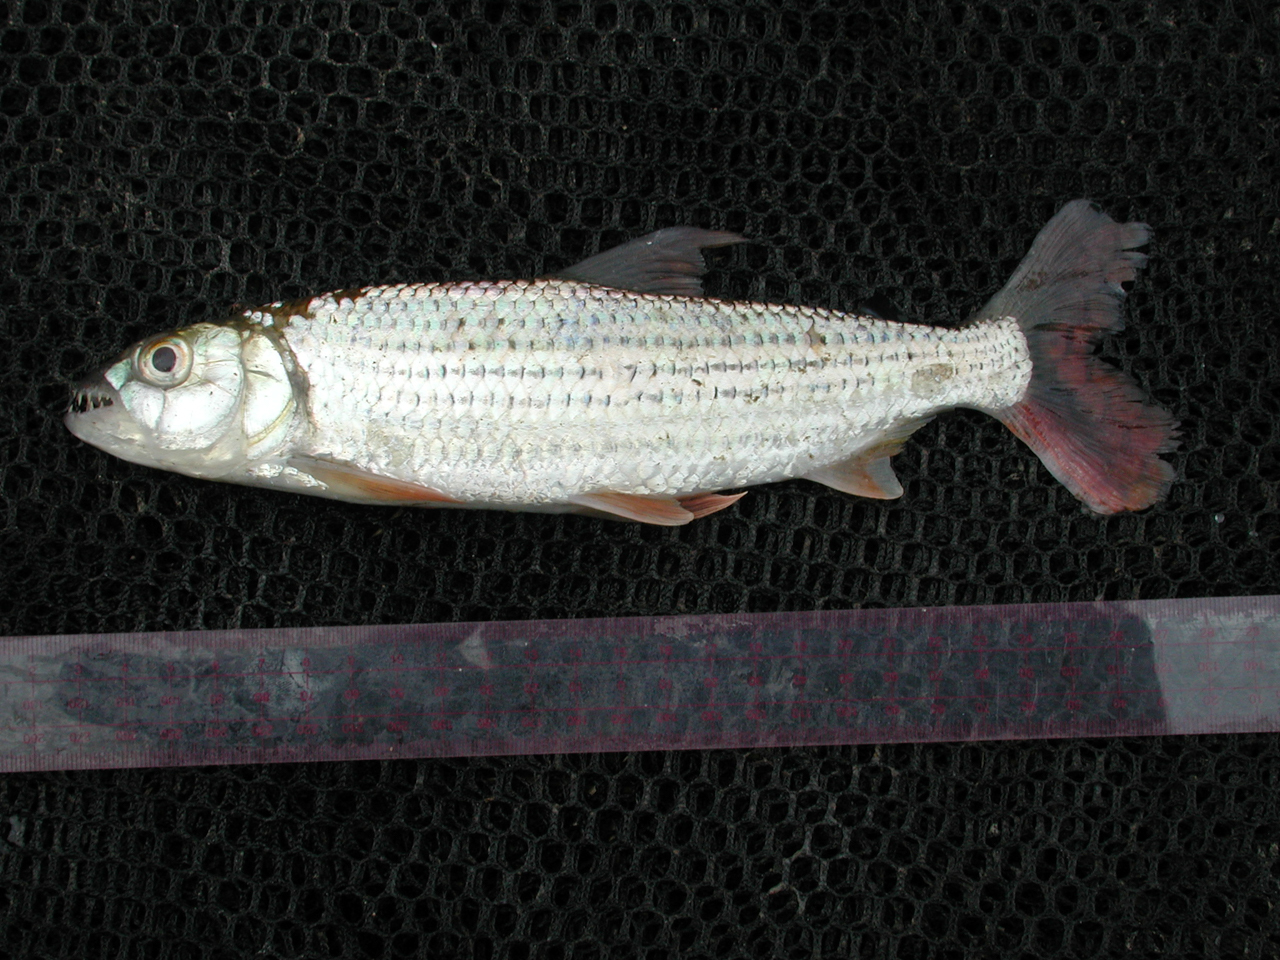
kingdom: Animalia
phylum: Chordata
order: Characiformes
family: Alestidae
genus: Hydrocynus
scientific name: Hydrocynus forskahlii
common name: Elongate tigerfish
